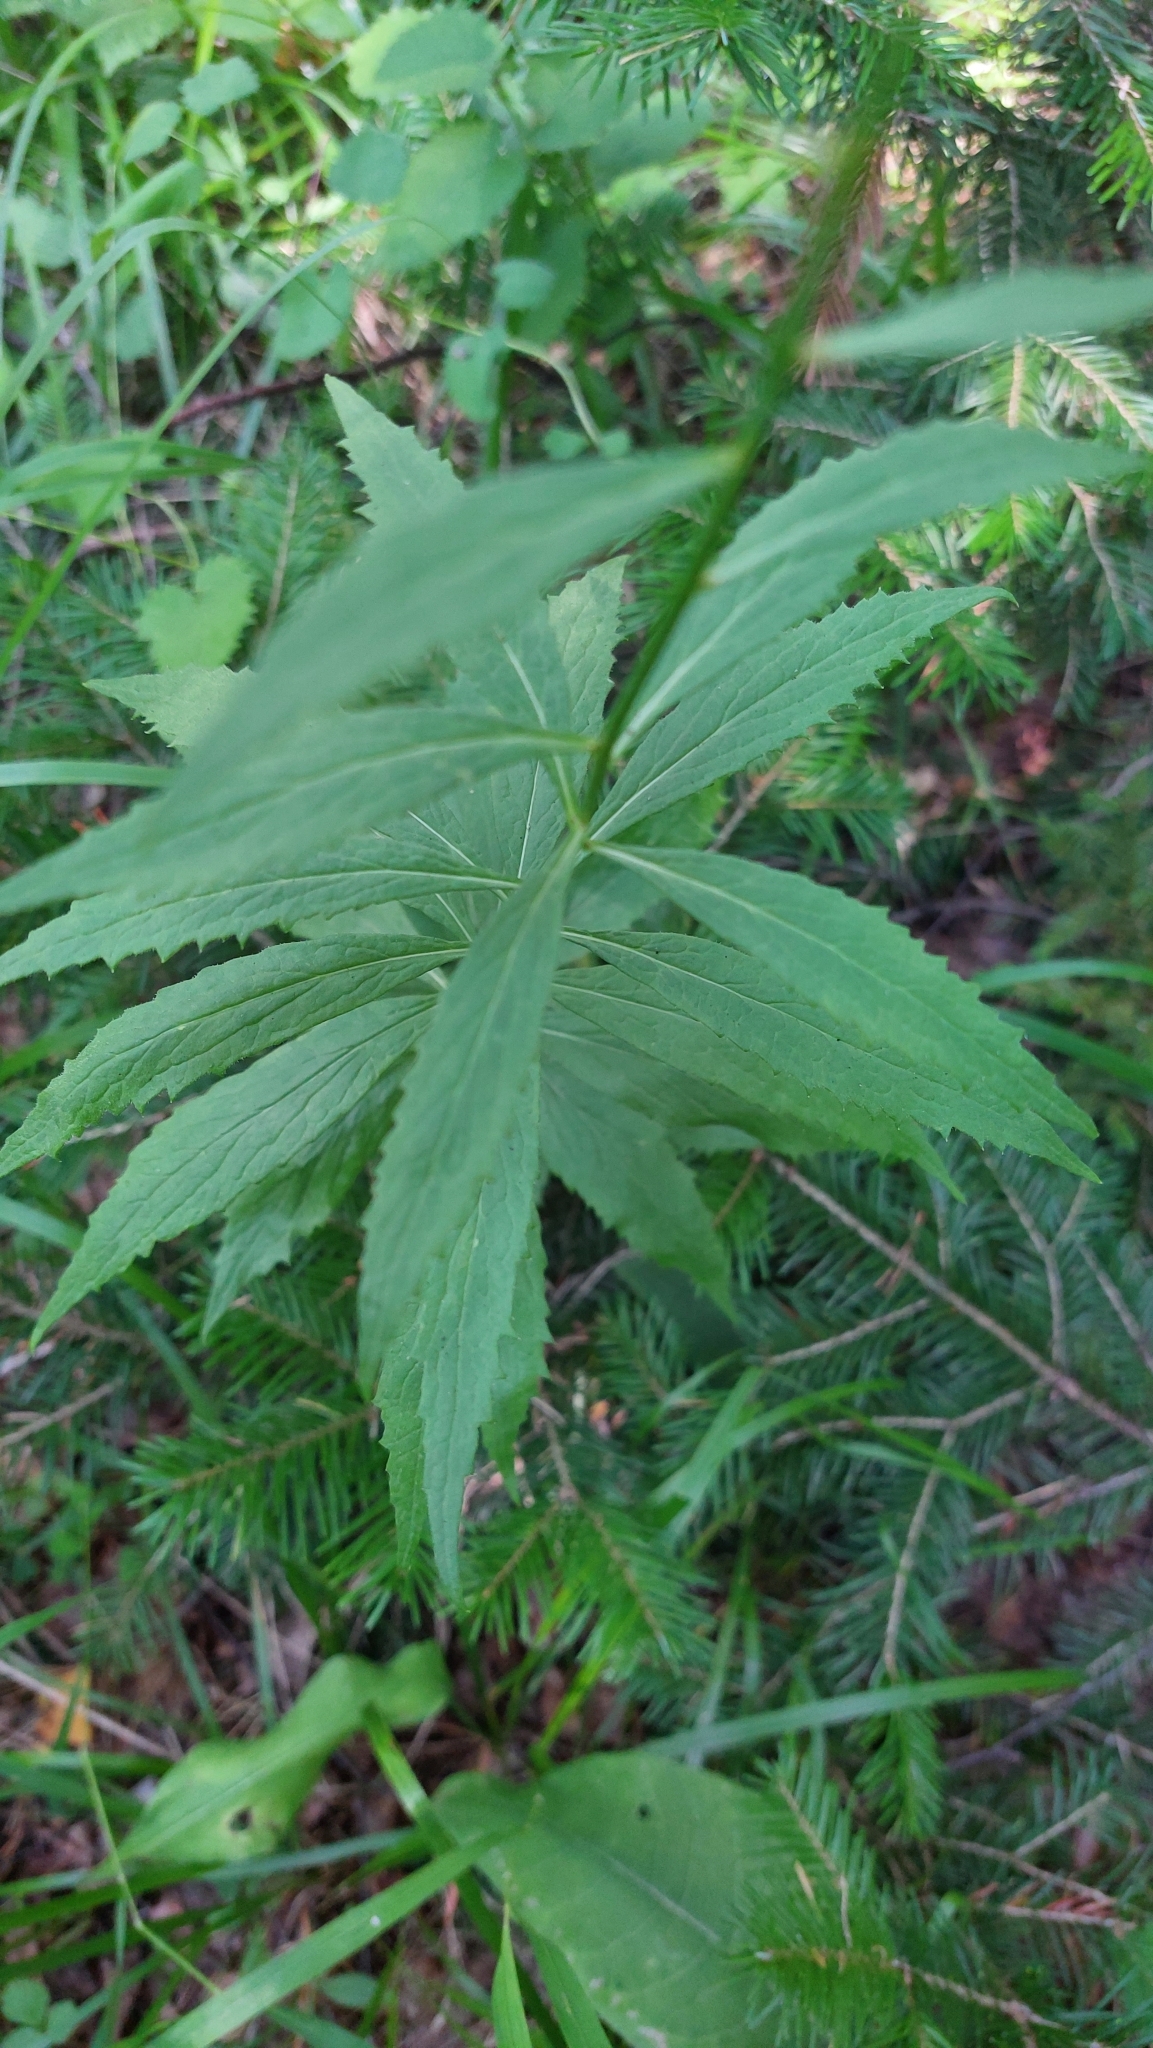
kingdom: Plantae
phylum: Tracheophyta
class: Magnoliopsida
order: Asterales
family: Campanulaceae
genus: Adenophora
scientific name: Adenophora liliifolia
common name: Lilyleaf ladybells
